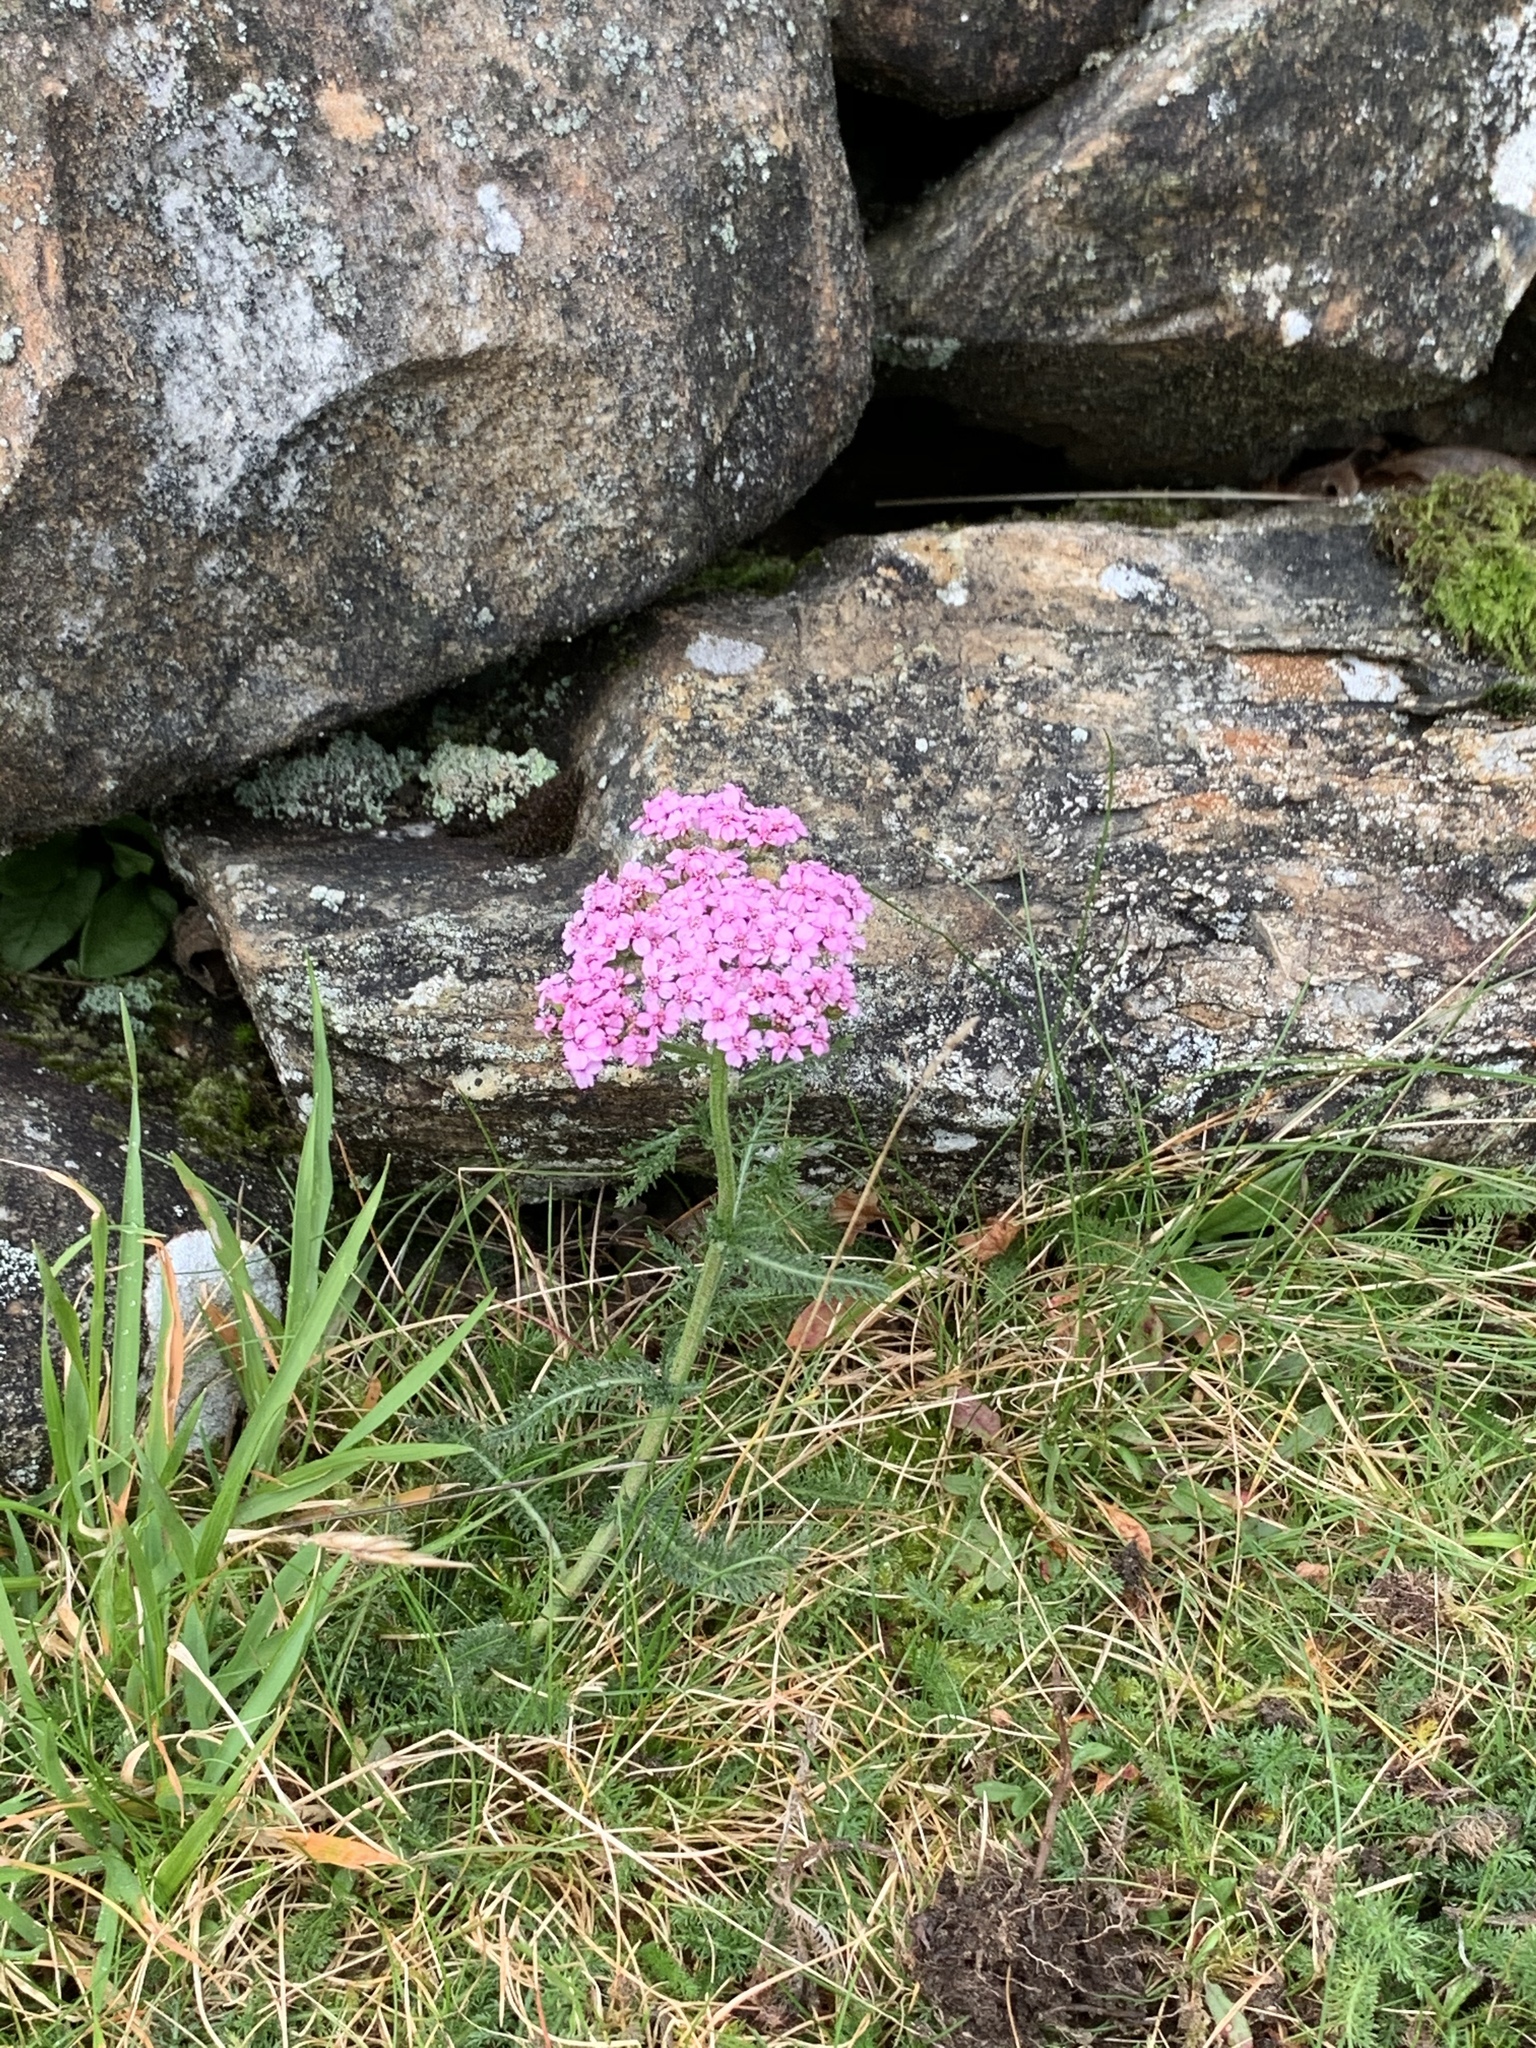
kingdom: Plantae
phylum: Tracheophyta
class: Magnoliopsida
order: Asterales
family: Asteraceae
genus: Achillea
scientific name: Achillea millefolium
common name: Yarrow
